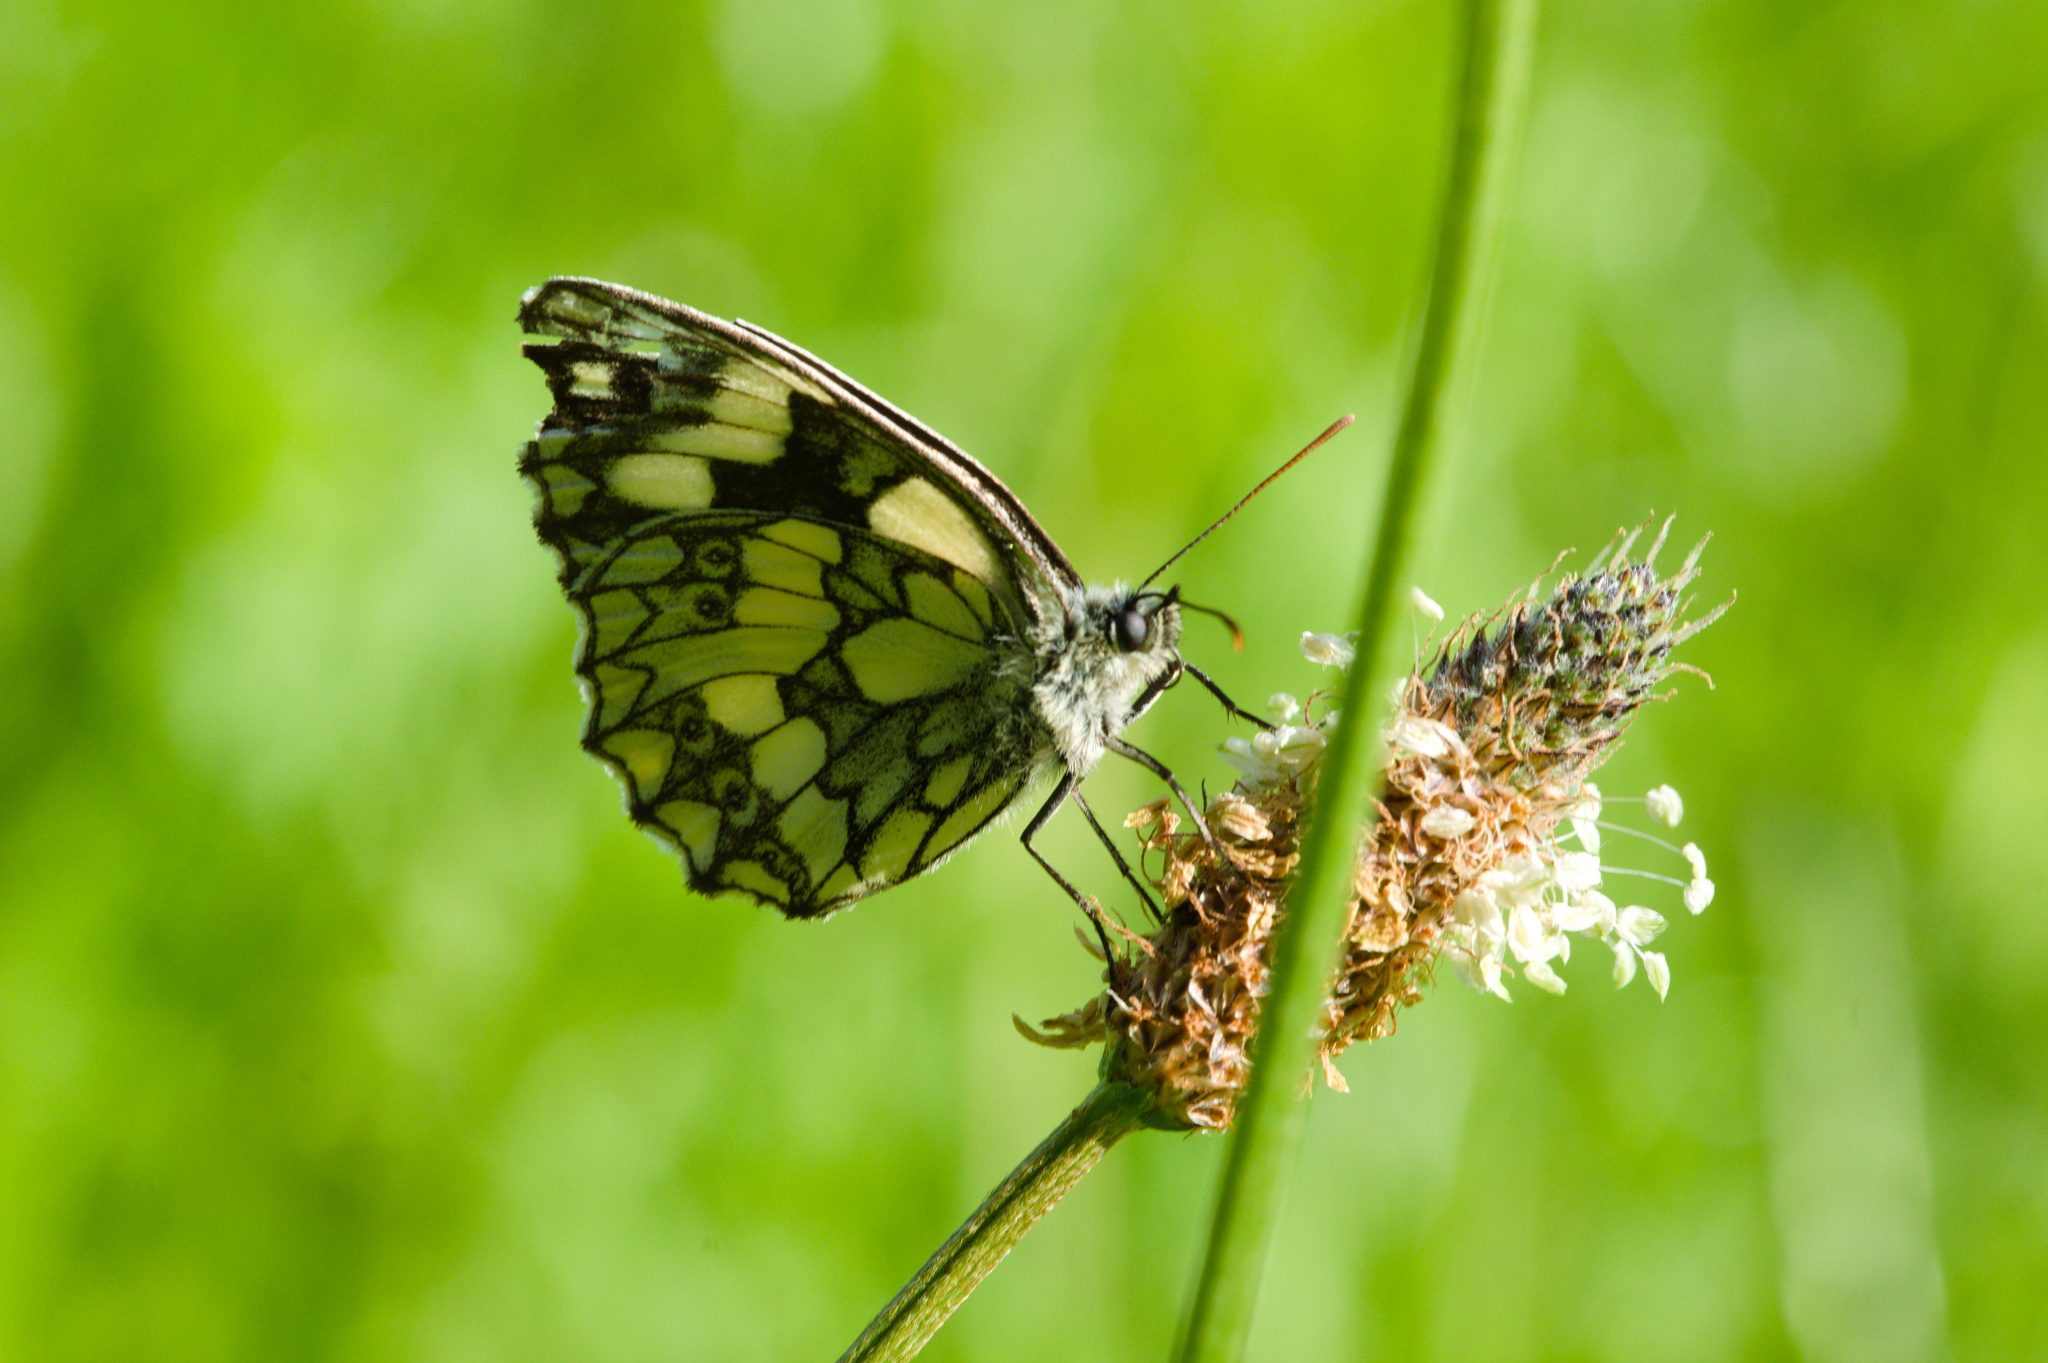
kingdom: Animalia
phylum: Arthropoda
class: Insecta
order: Lepidoptera
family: Nymphalidae
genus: Melanargia
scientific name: Melanargia galathea
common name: Marbled white
